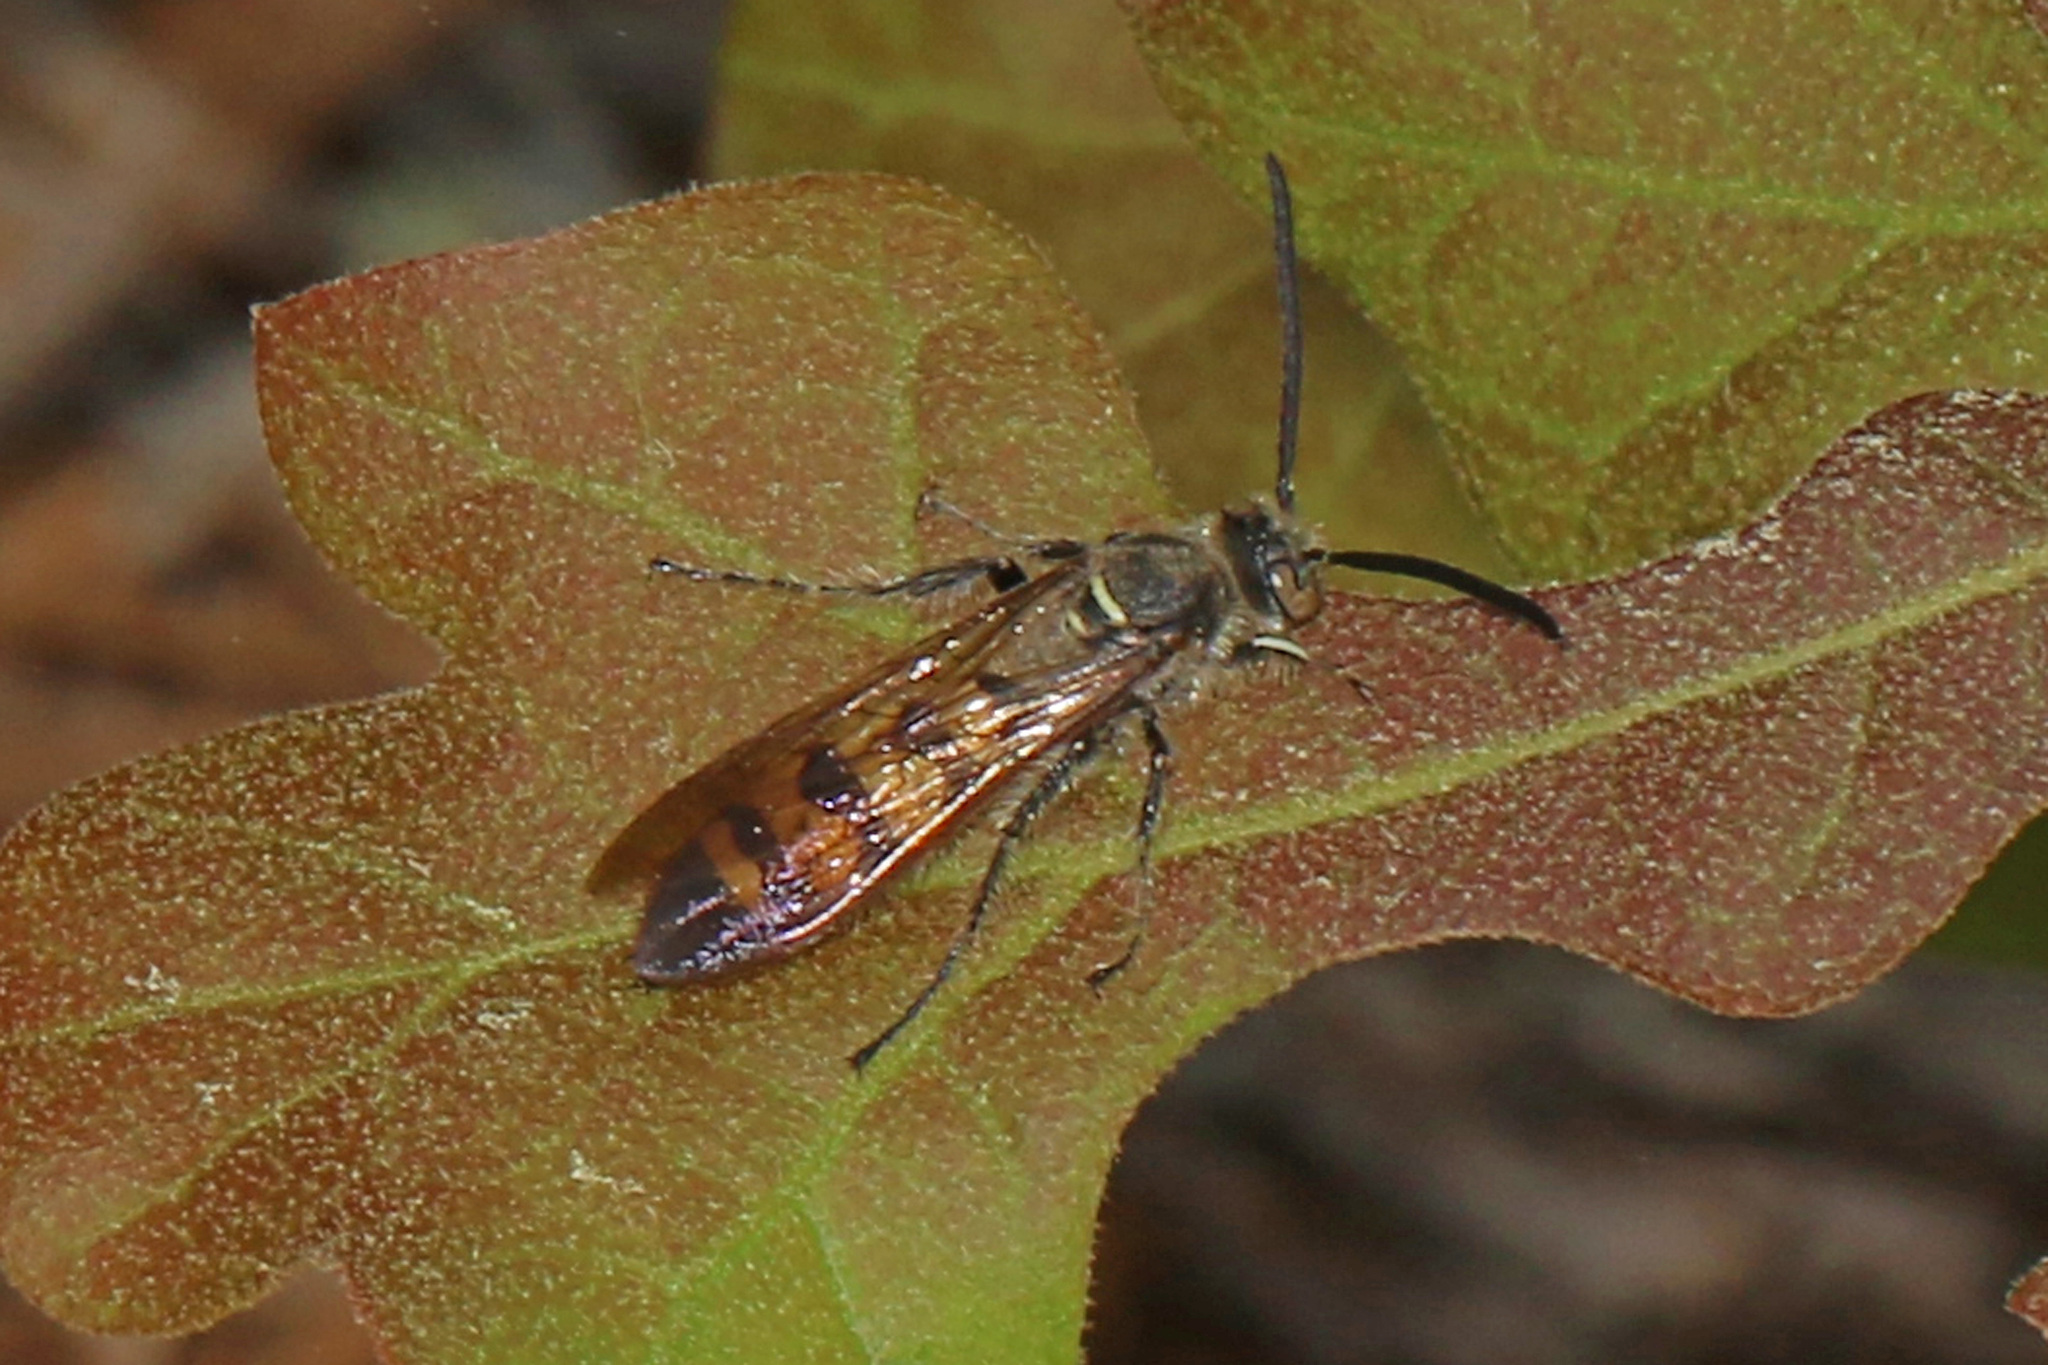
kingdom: Animalia
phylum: Arthropoda
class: Insecta
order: Hymenoptera
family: Scoliidae
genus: Dielis
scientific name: Dielis
